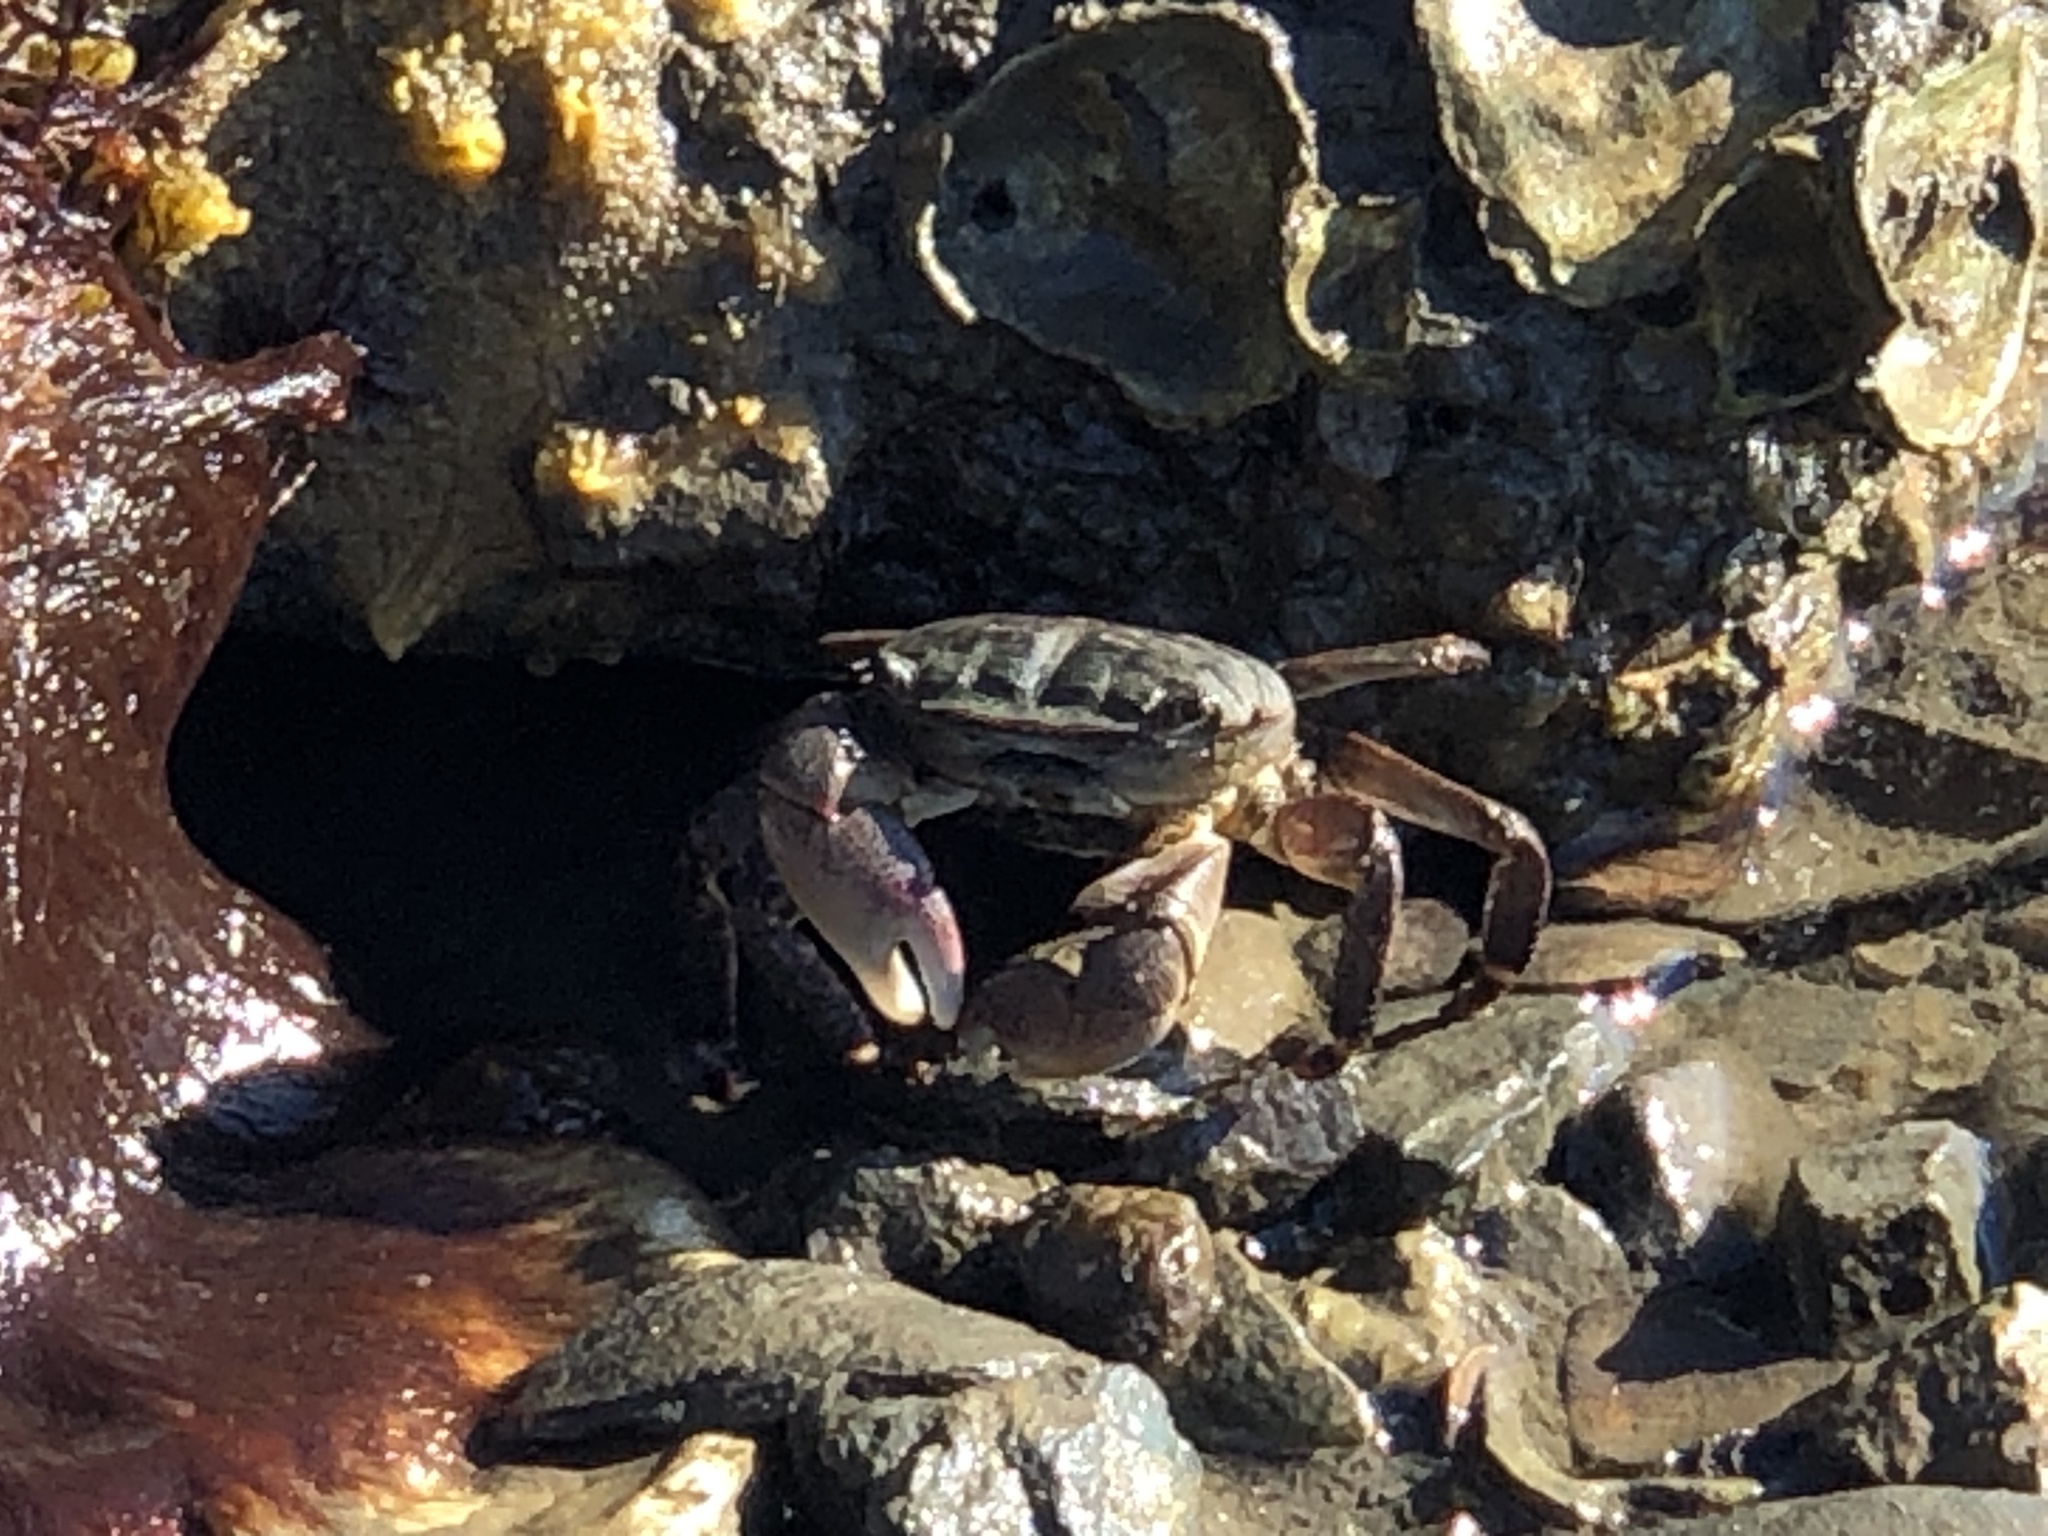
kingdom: Animalia
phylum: Arthropoda
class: Malacostraca
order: Decapoda
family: Grapsidae
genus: Pachygrapsus
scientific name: Pachygrapsus crassipes
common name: Striped shore crab
